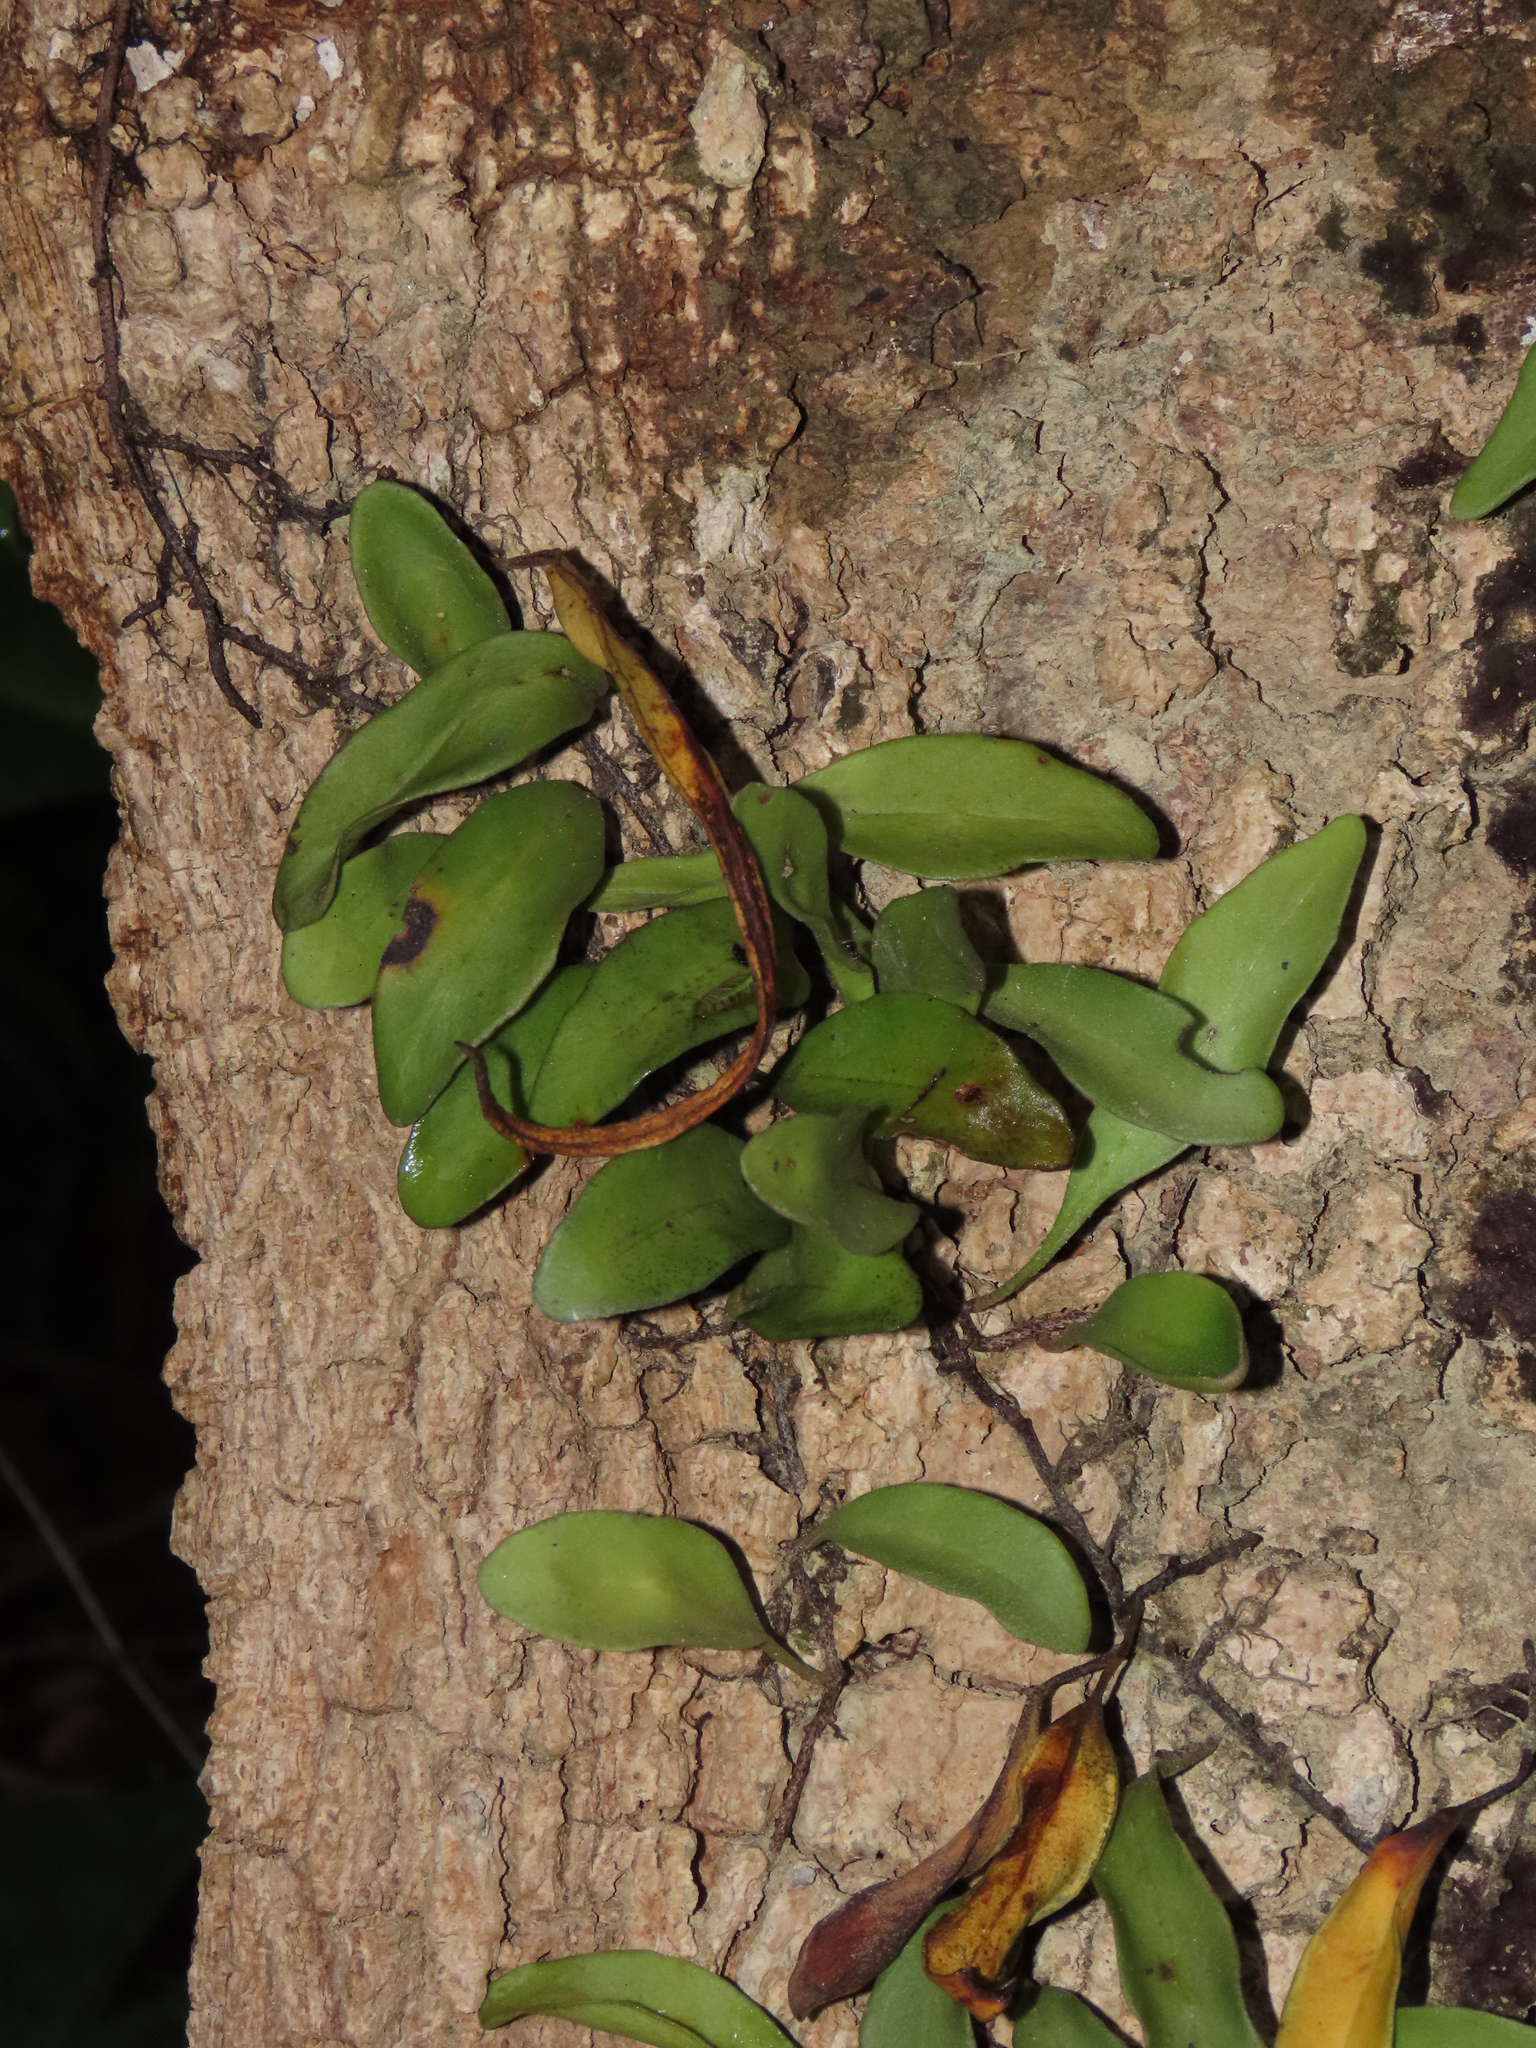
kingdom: Plantae
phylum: Tracheophyta
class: Polypodiopsida
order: Polypodiales
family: Polypodiaceae
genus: Pyrrosia
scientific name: Pyrrosia lanceolata
